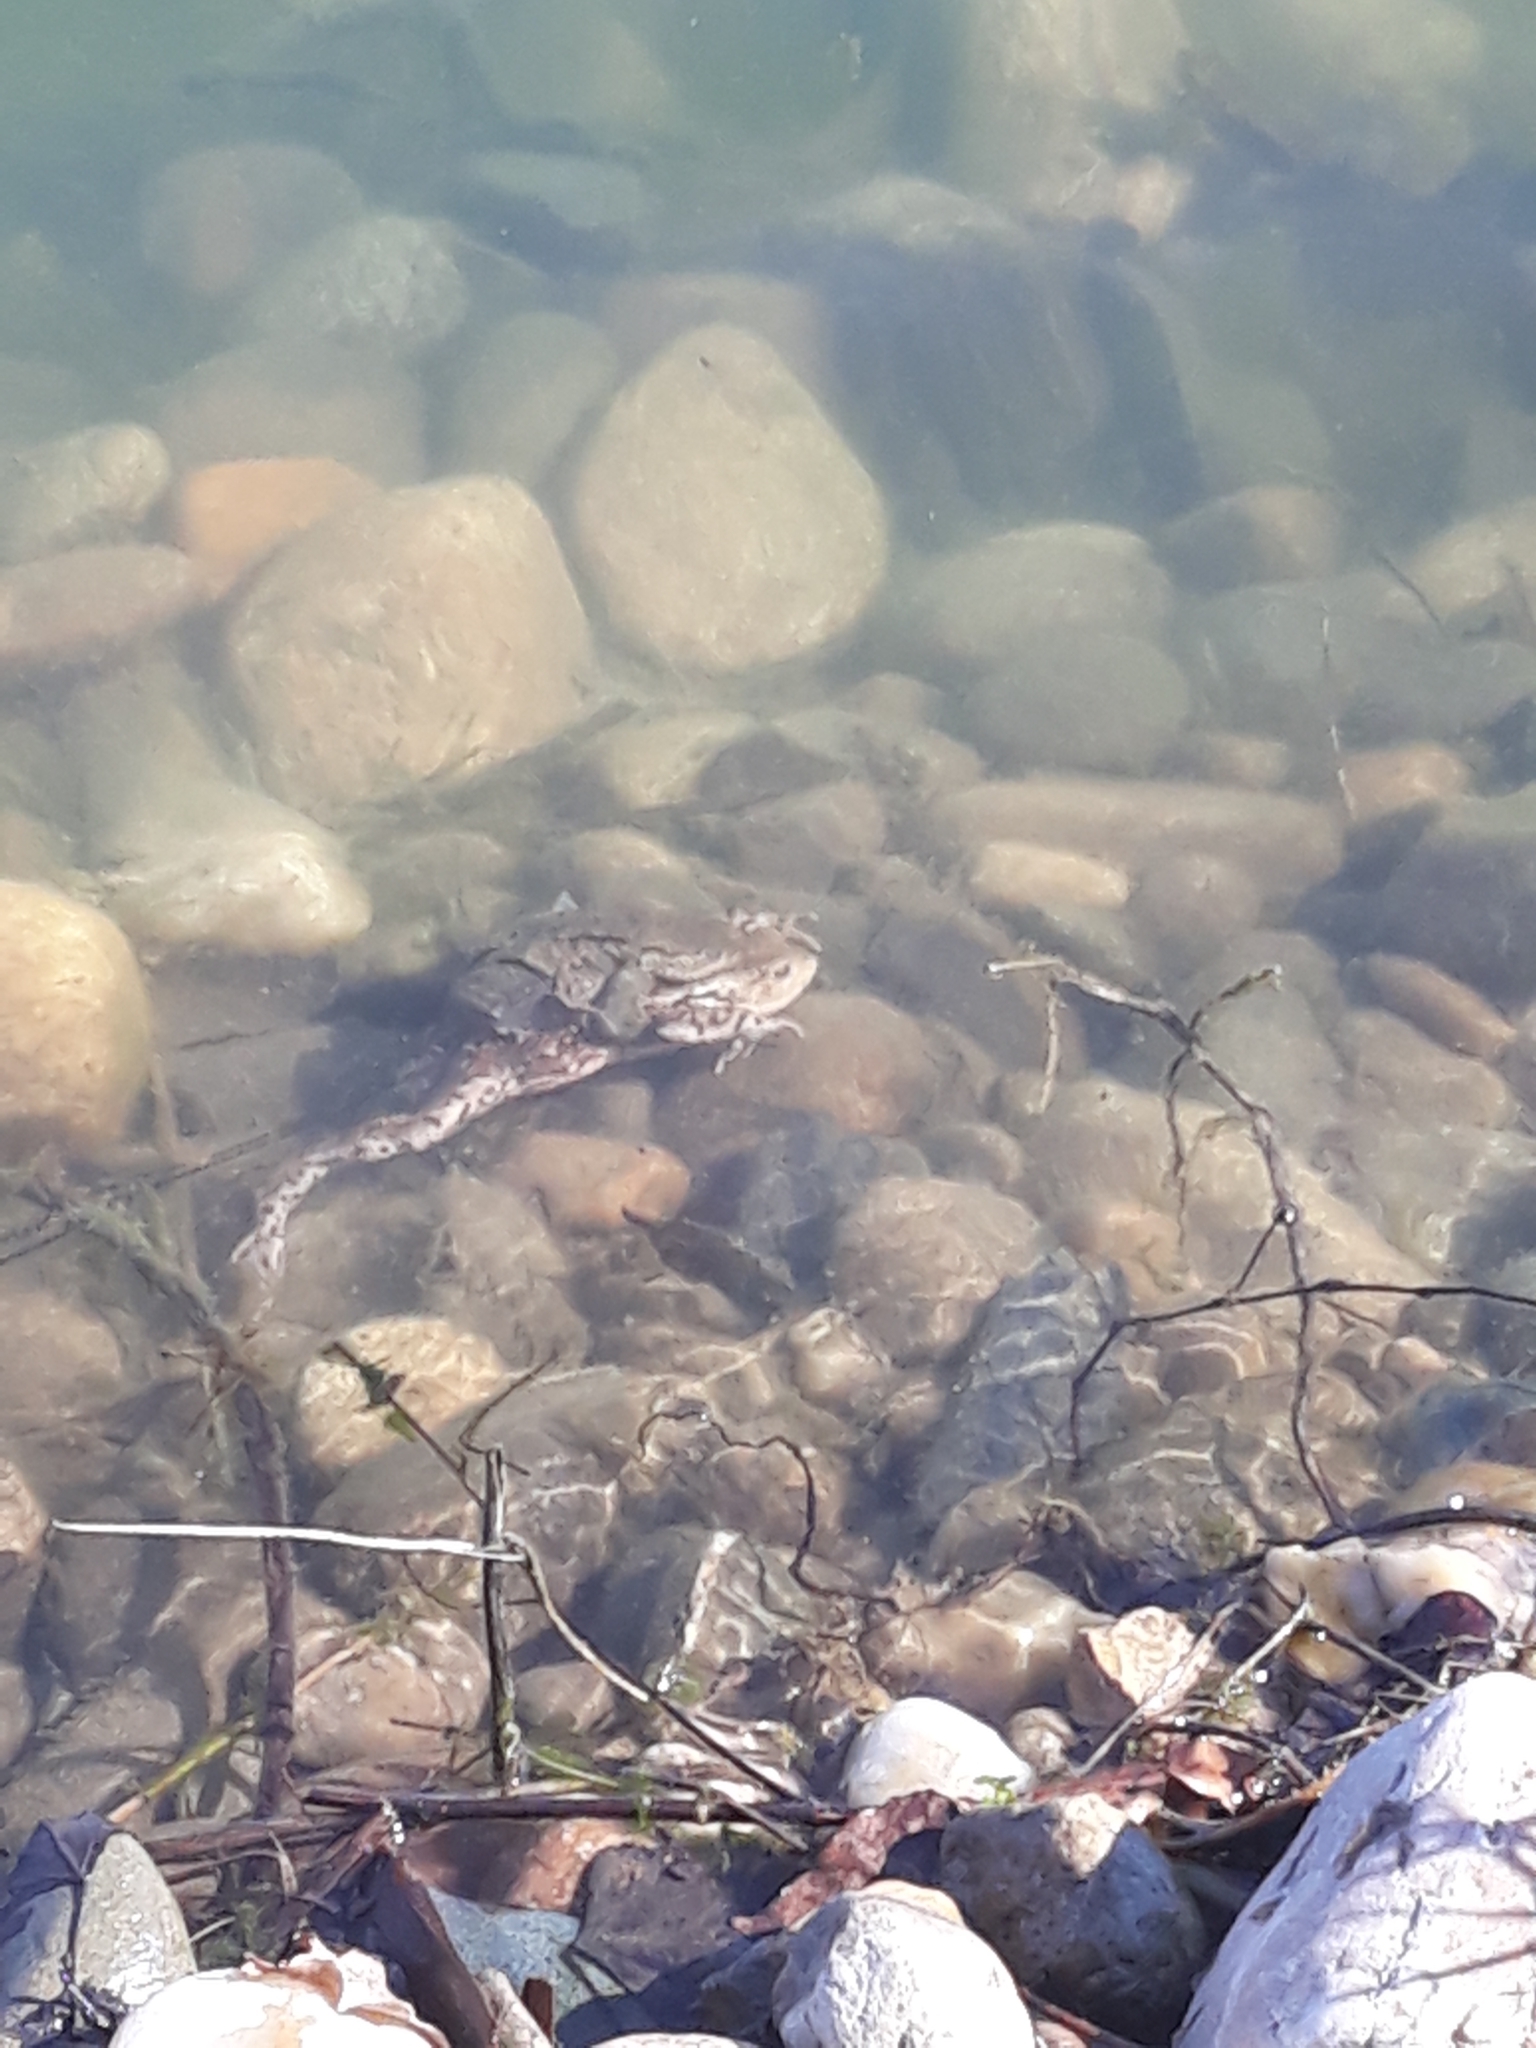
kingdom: Animalia
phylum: Chordata
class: Amphibia
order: Anura
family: Bufonidae
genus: Bufo
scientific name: Bufo bufo
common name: Common toad
